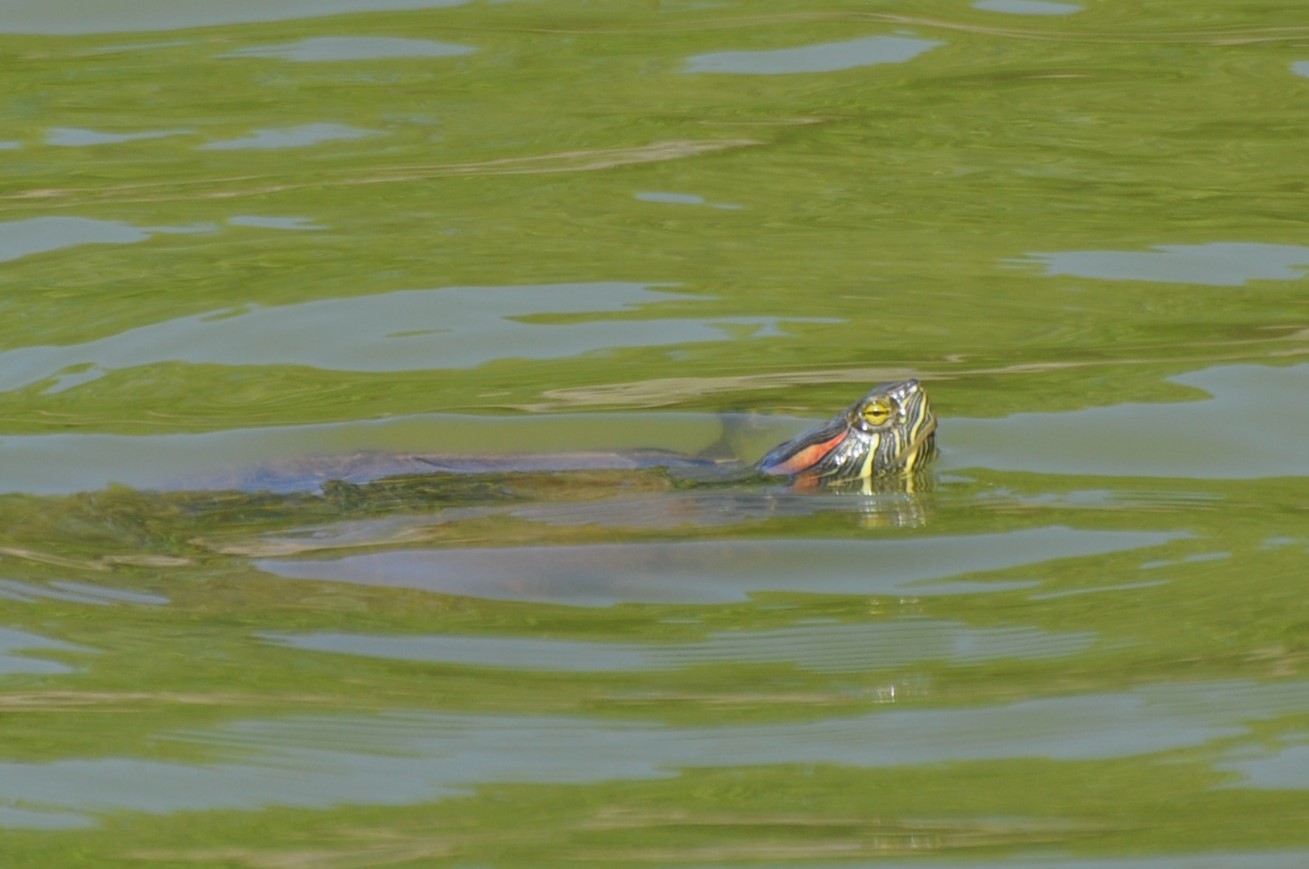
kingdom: Animalia
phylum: Chordata
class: Testudines
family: Emydidae
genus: Trachemys
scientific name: Trachemys scripta
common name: Slider
